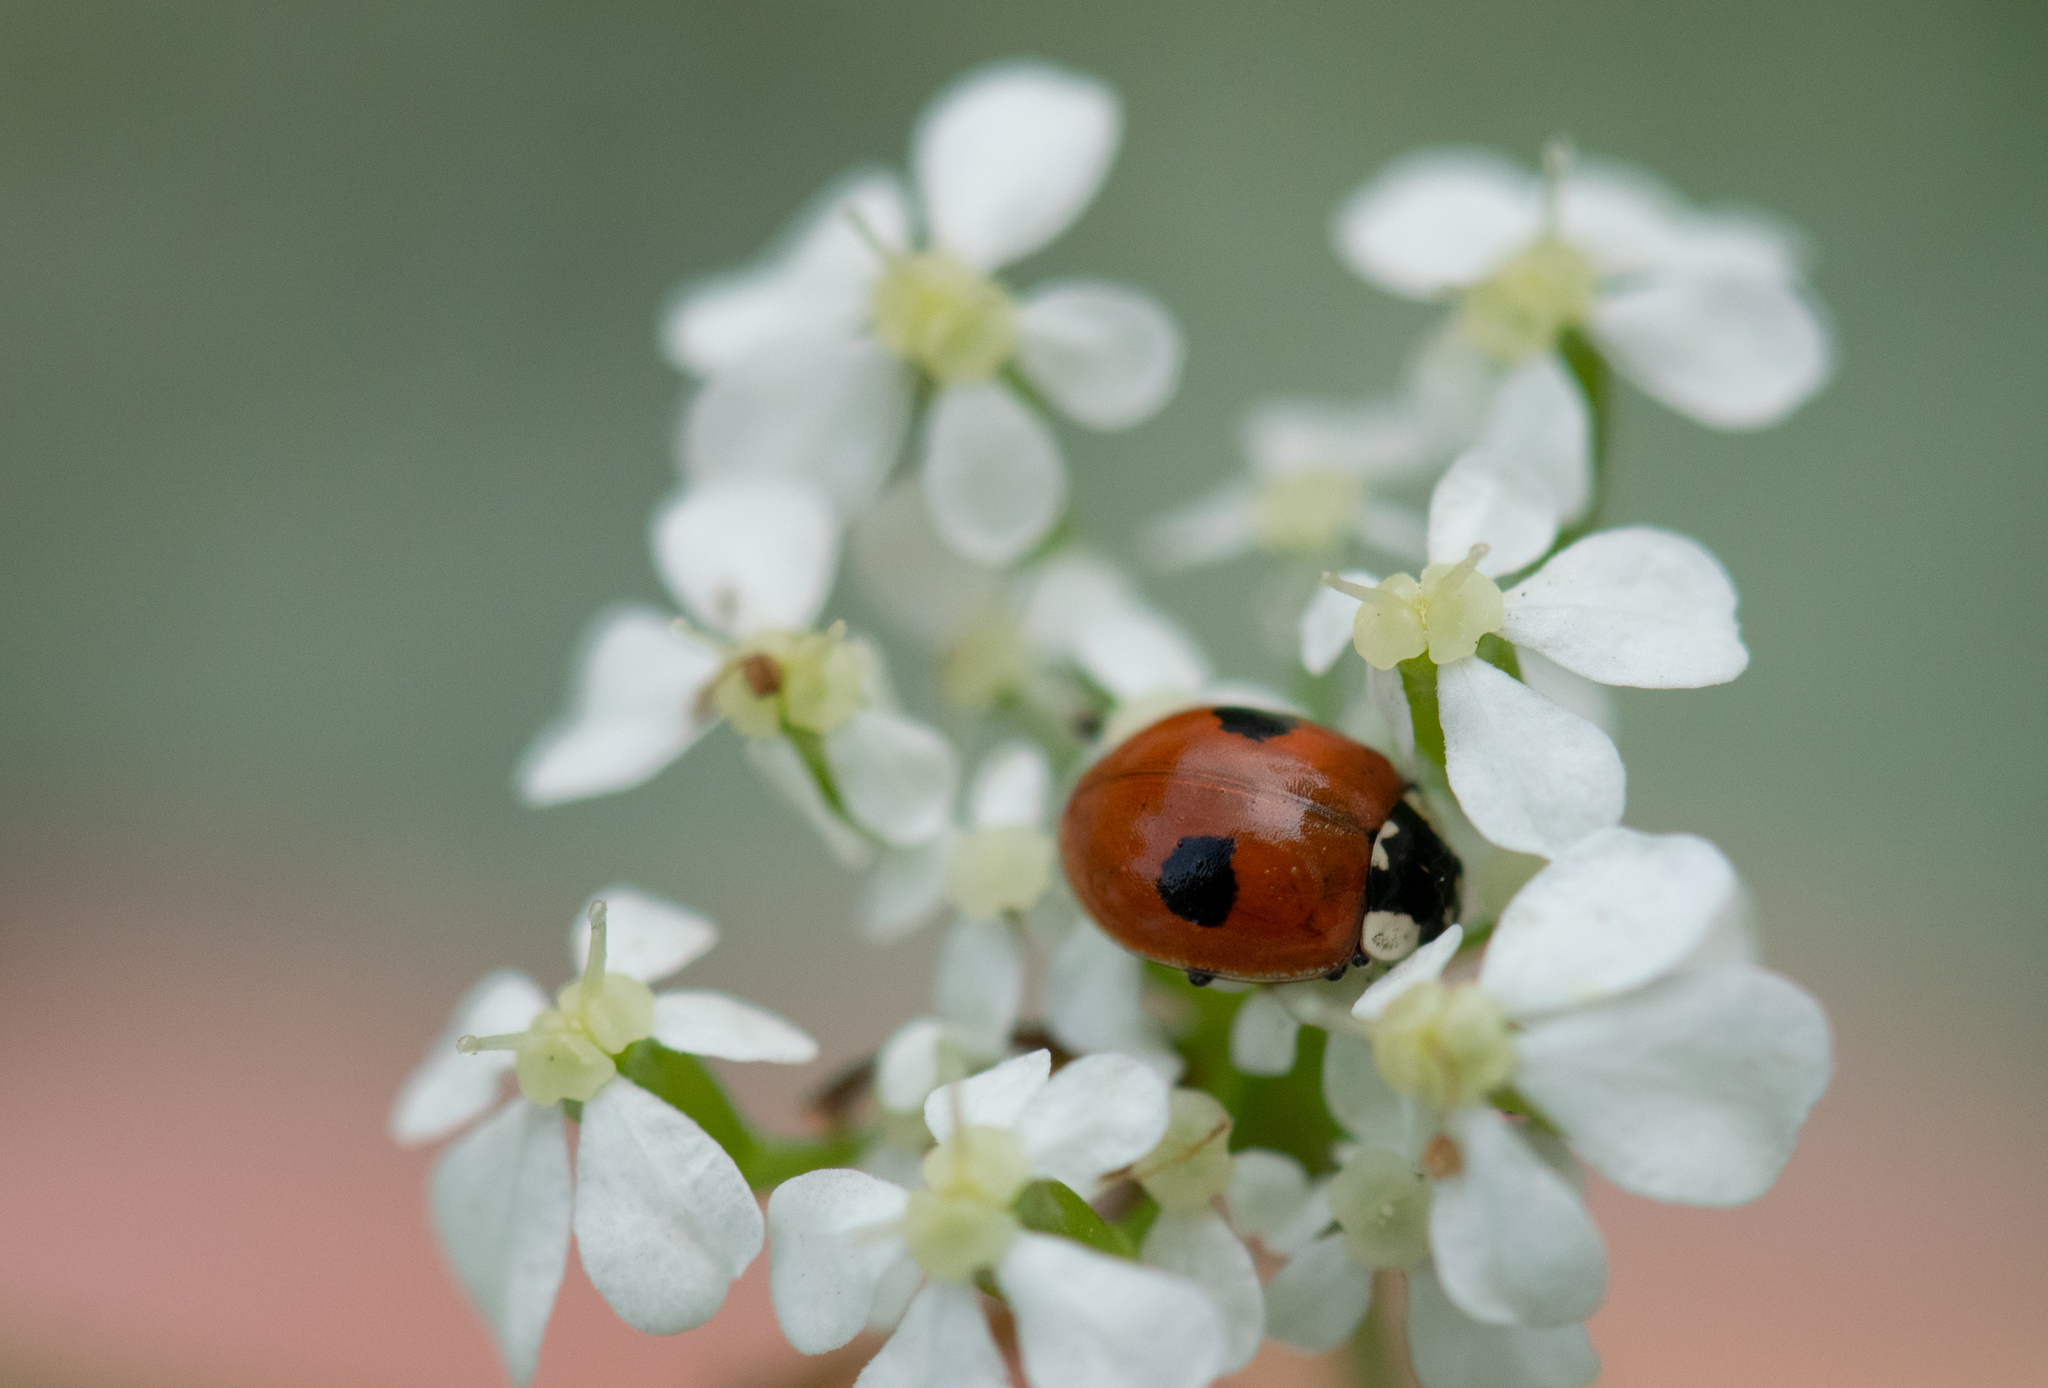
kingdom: Animalia
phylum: Arthropoda
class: Insecta
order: Coleoptera
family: Coccinellidae
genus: Adalia
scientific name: Adalia bipunctata
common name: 2-spot ladybird
